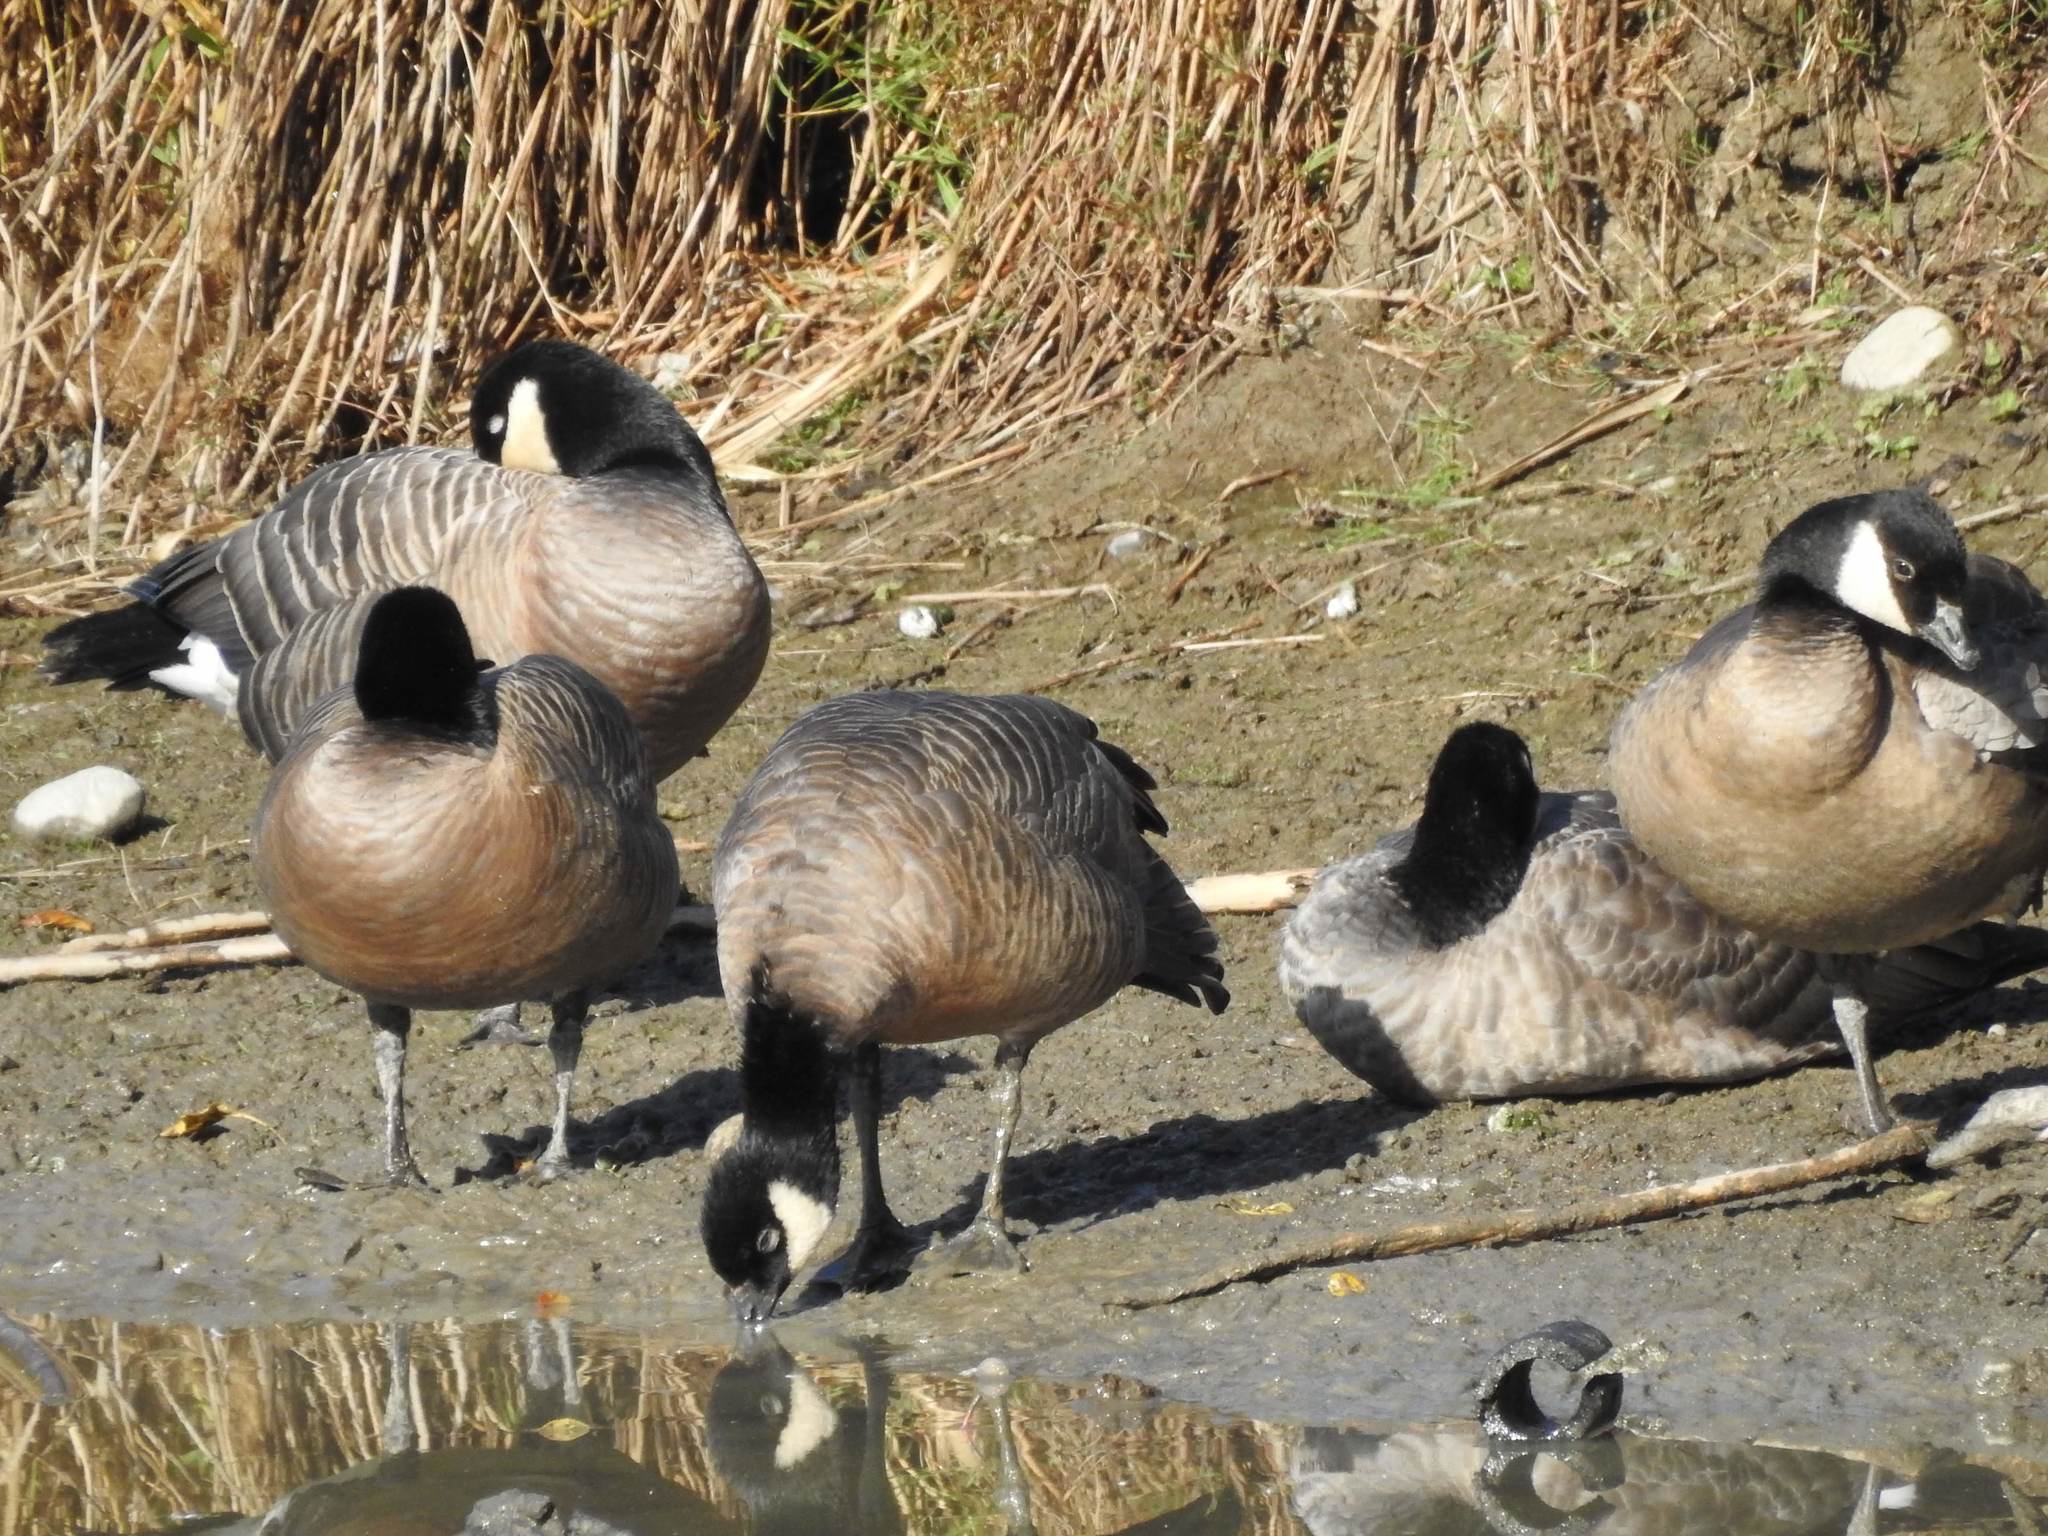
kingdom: Animalia
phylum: Chordata
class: Aves
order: Anseriformes
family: Anatidae
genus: Branta
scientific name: Branta hutchinsii
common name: Cackling goose
